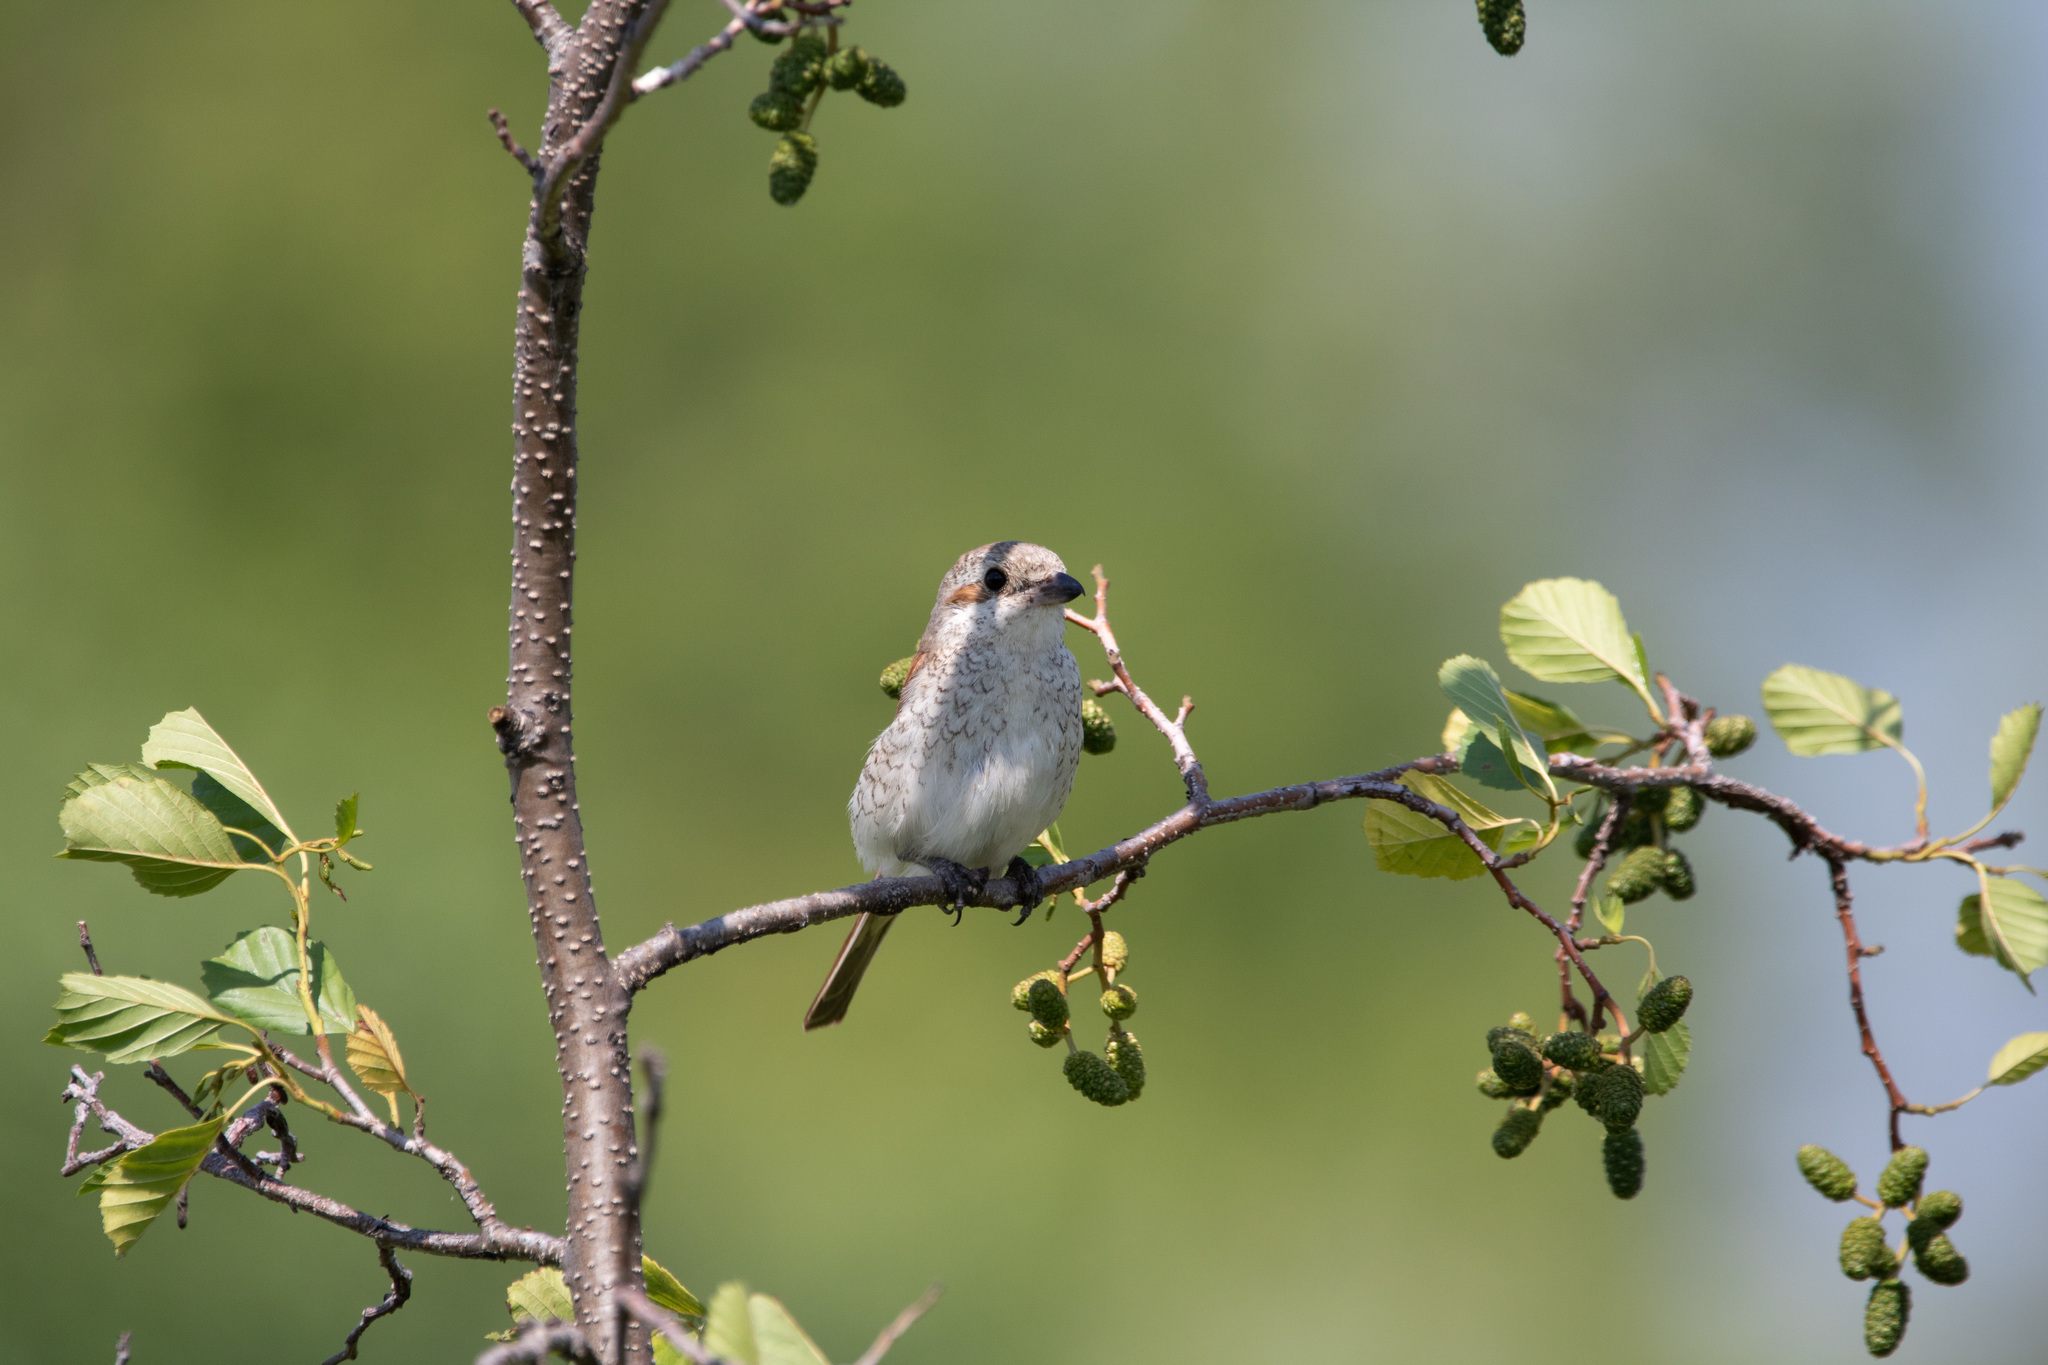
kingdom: Animalia
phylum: Chordata
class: Aves
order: Passeriformes
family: Laniidae
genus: Lanius
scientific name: Lanius collurio
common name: Red-backed shrike
